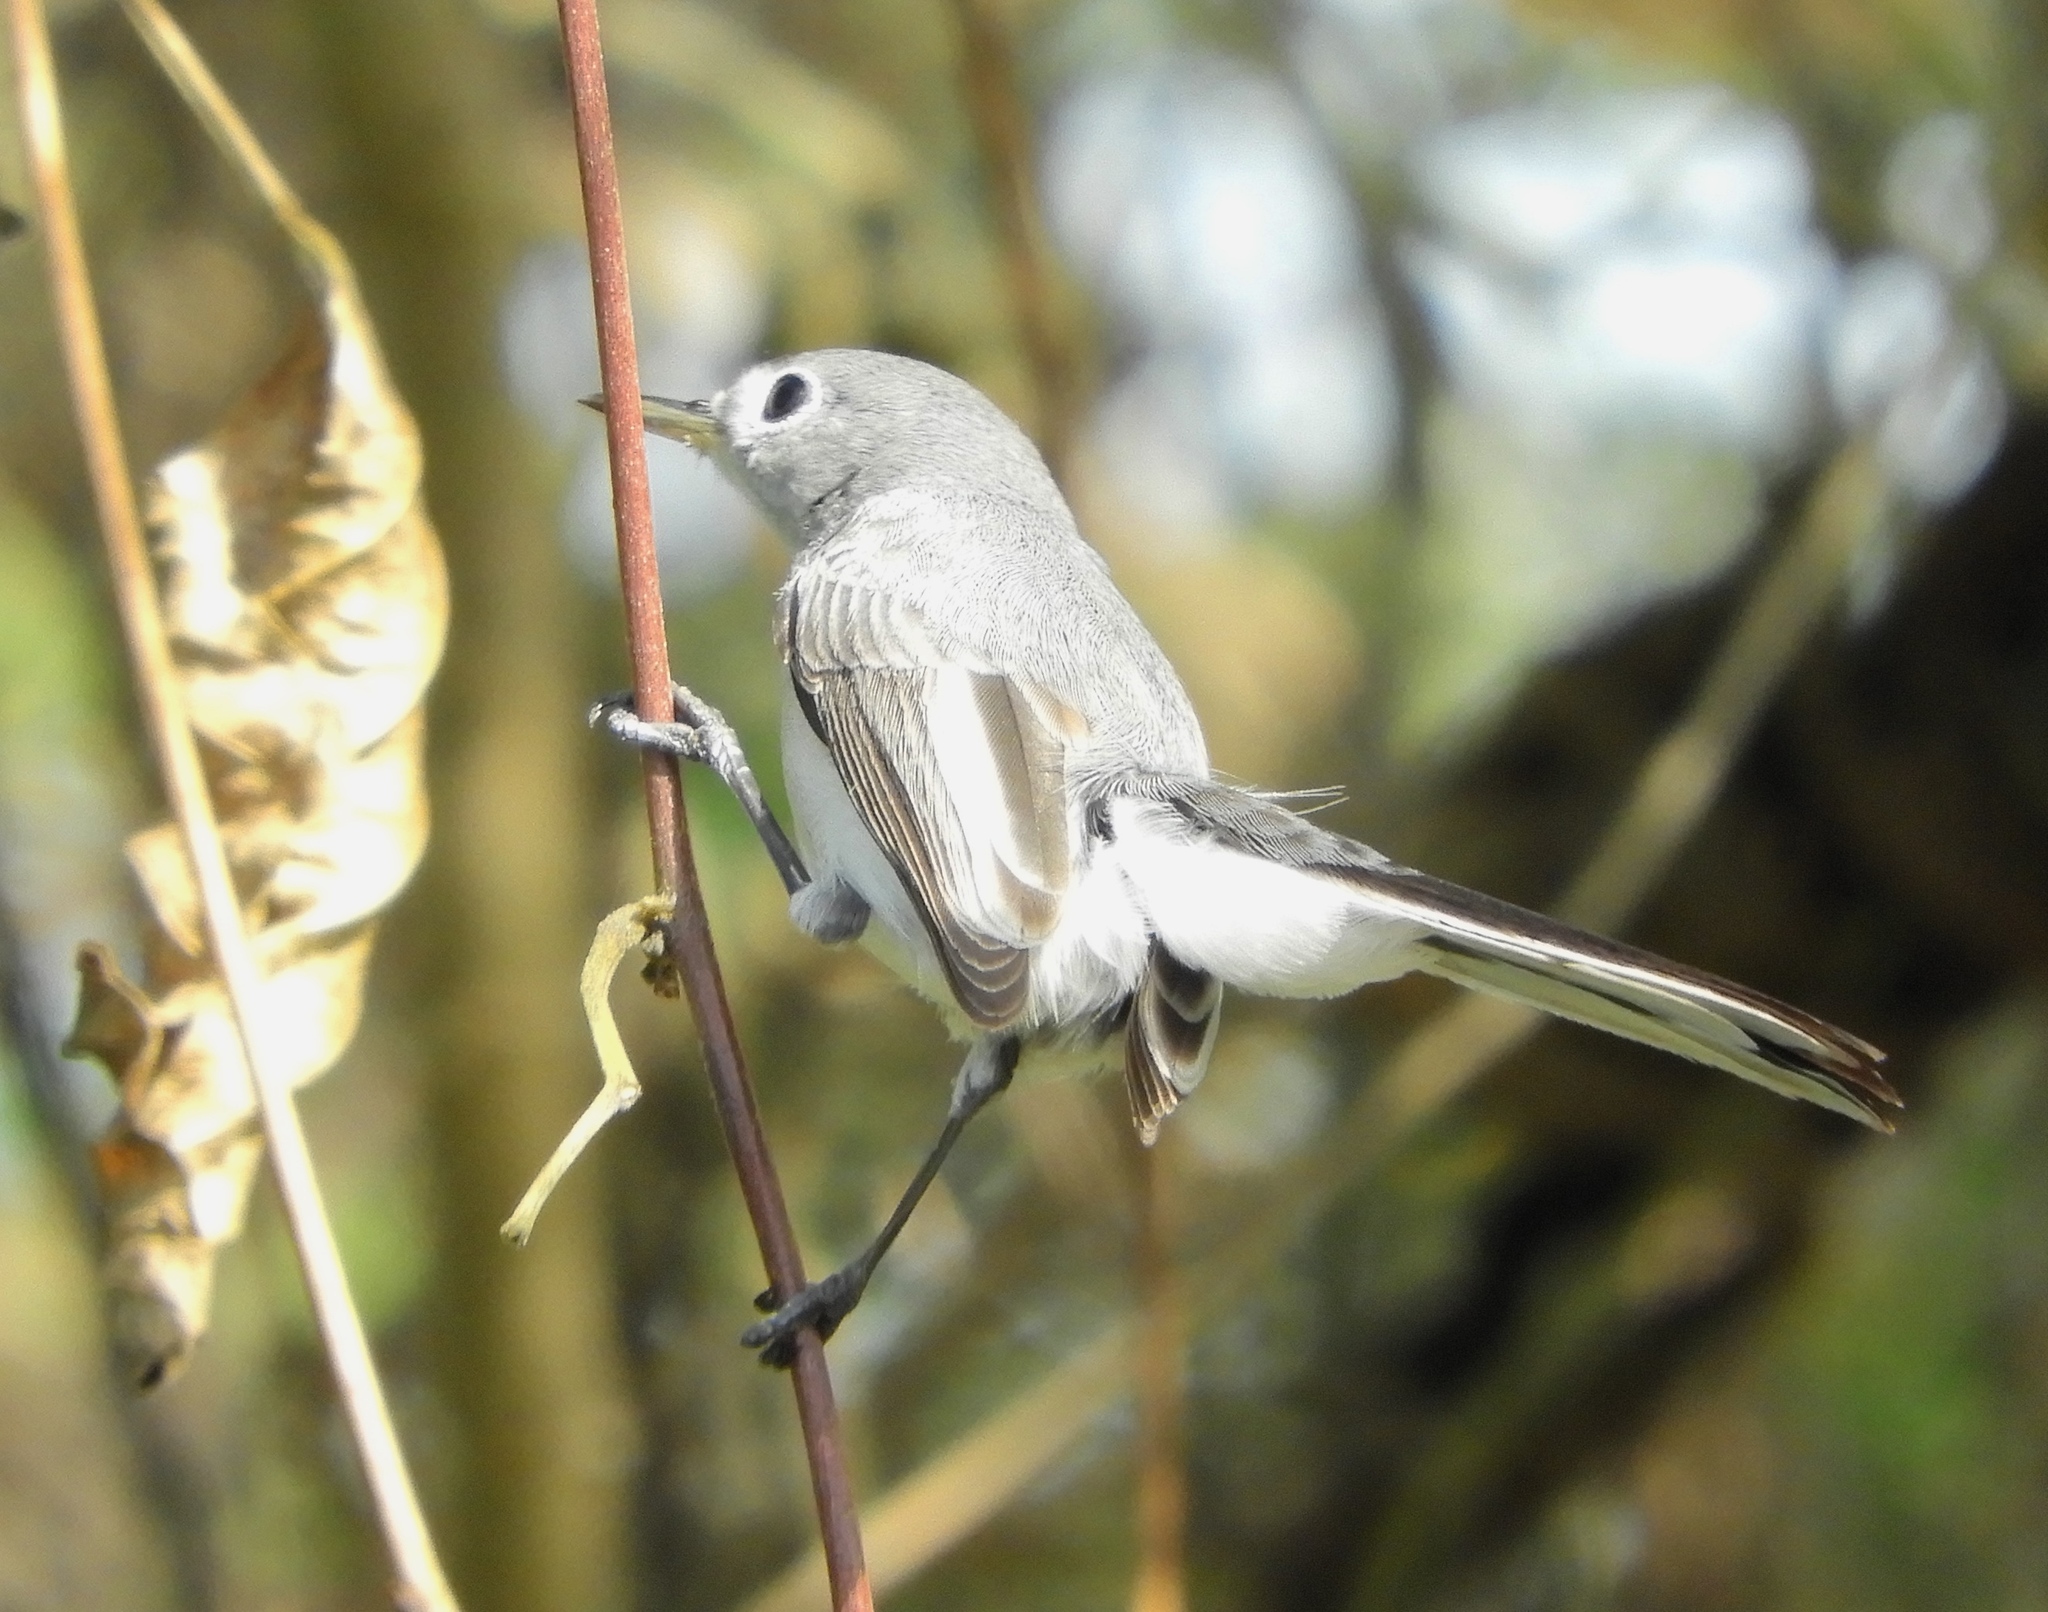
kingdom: Animalia
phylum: Chordata
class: Aves
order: Passeriformes
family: Polioptilidae
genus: Polioptila
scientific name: Polioptila caerulea
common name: Blue-gray gnatcatcher
